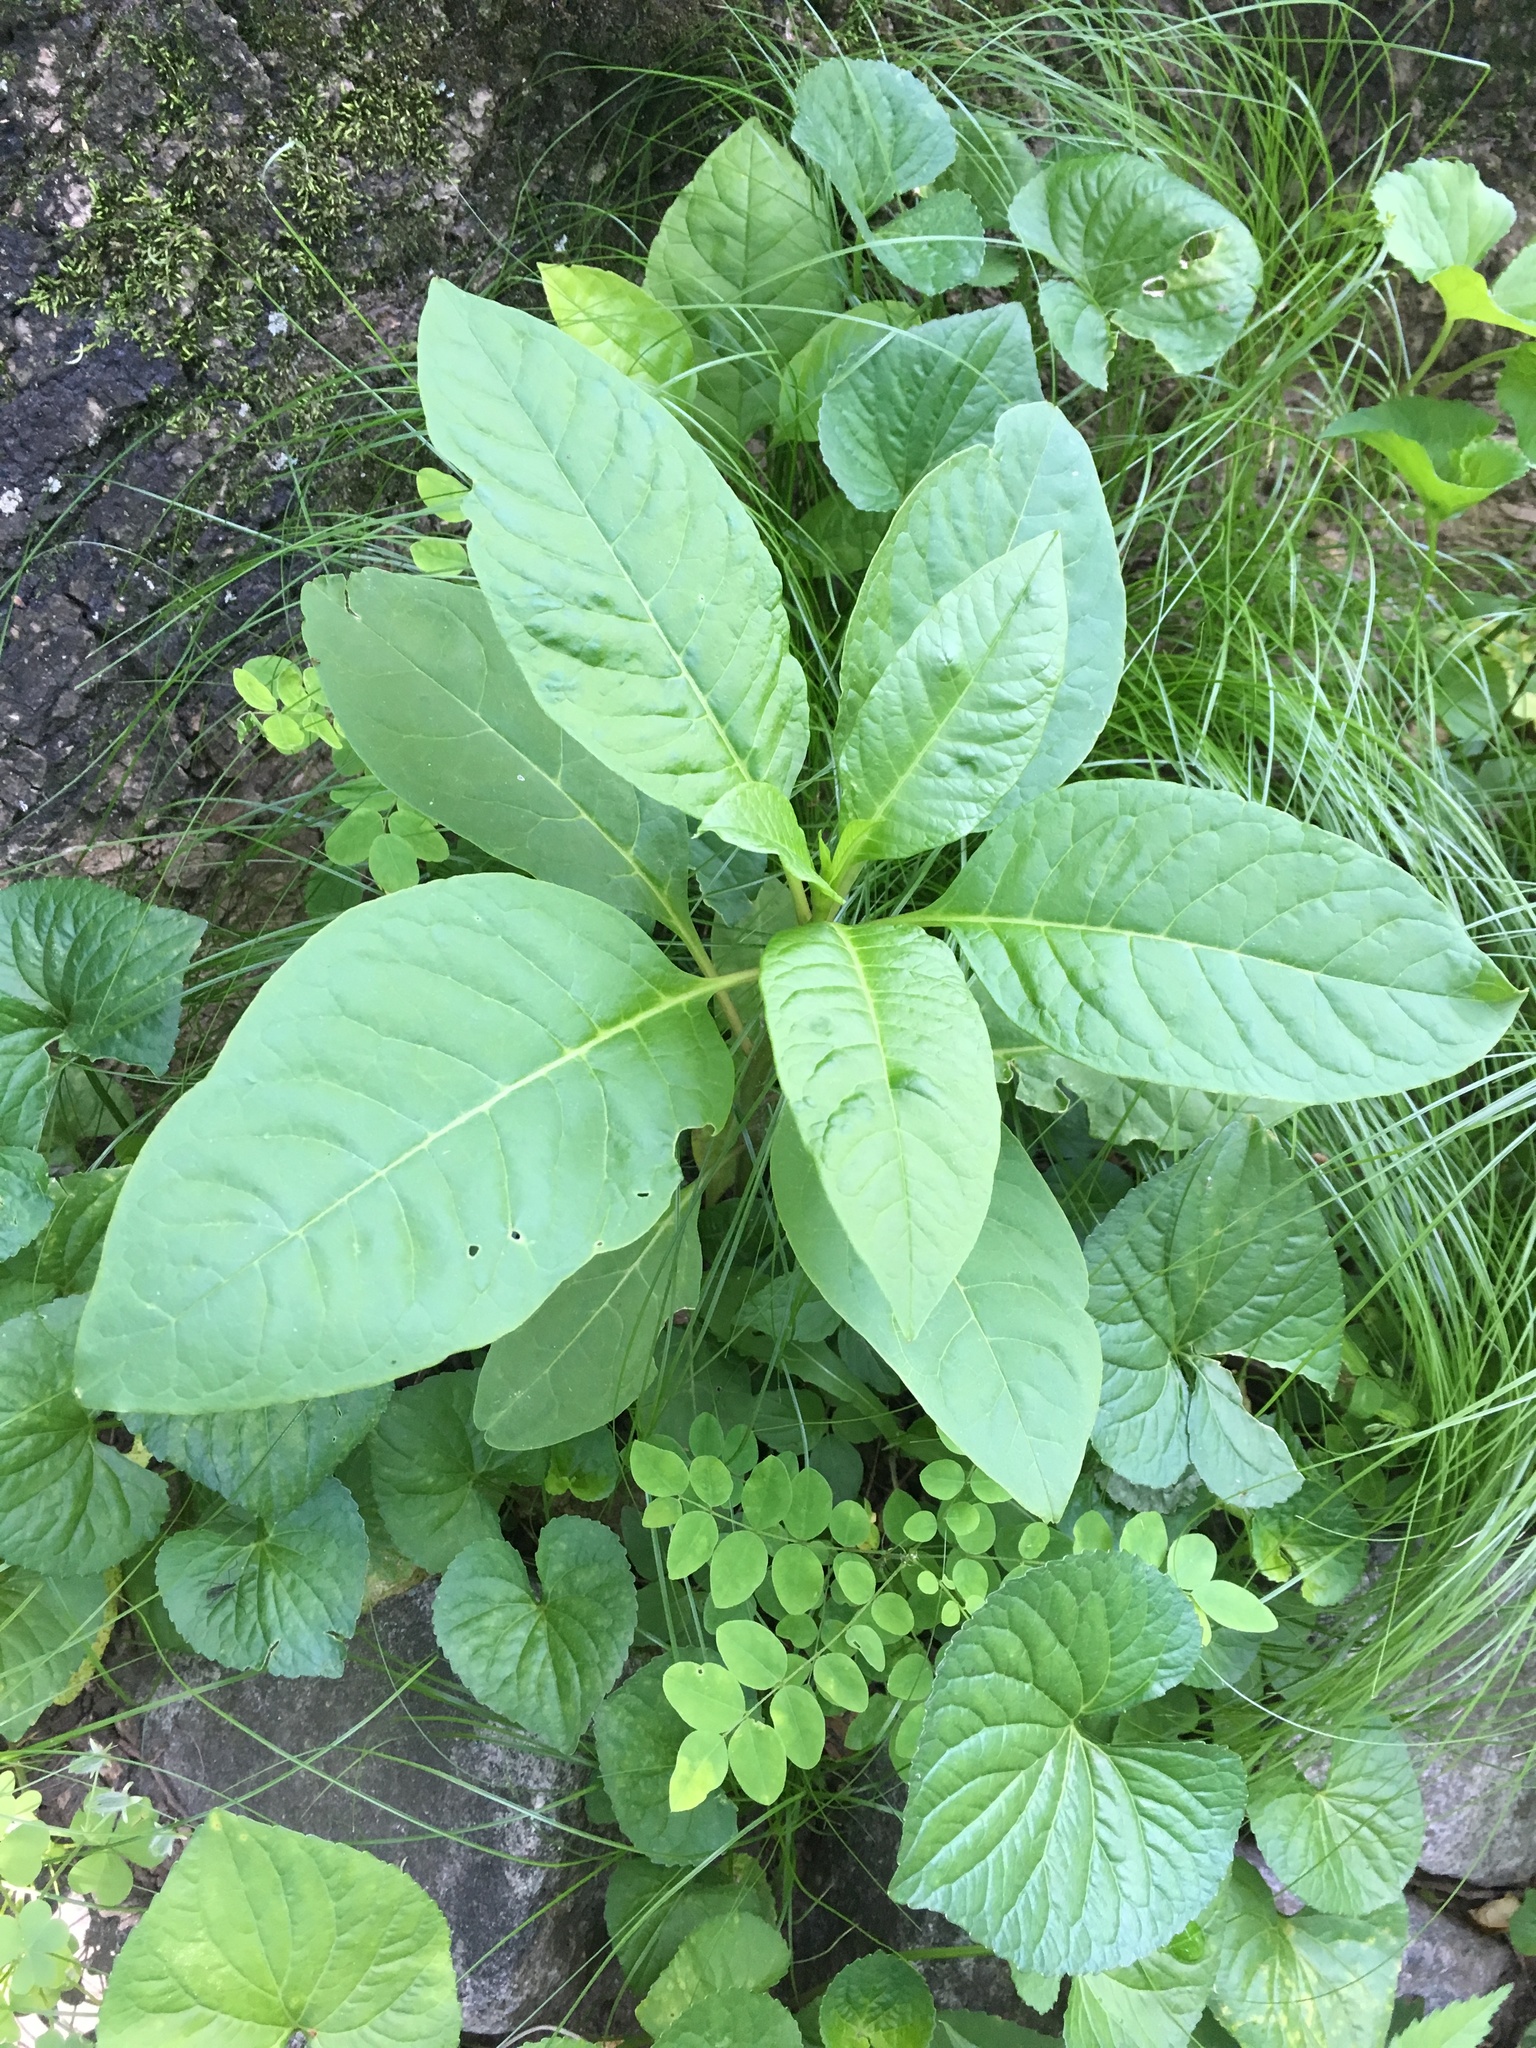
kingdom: Plantae
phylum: Tracheophyta
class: Magnoliopsida
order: Caryophyllales
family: Phytolaccaceae
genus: Phytolacca
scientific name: Phytolacca americana
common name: American pokeweed
